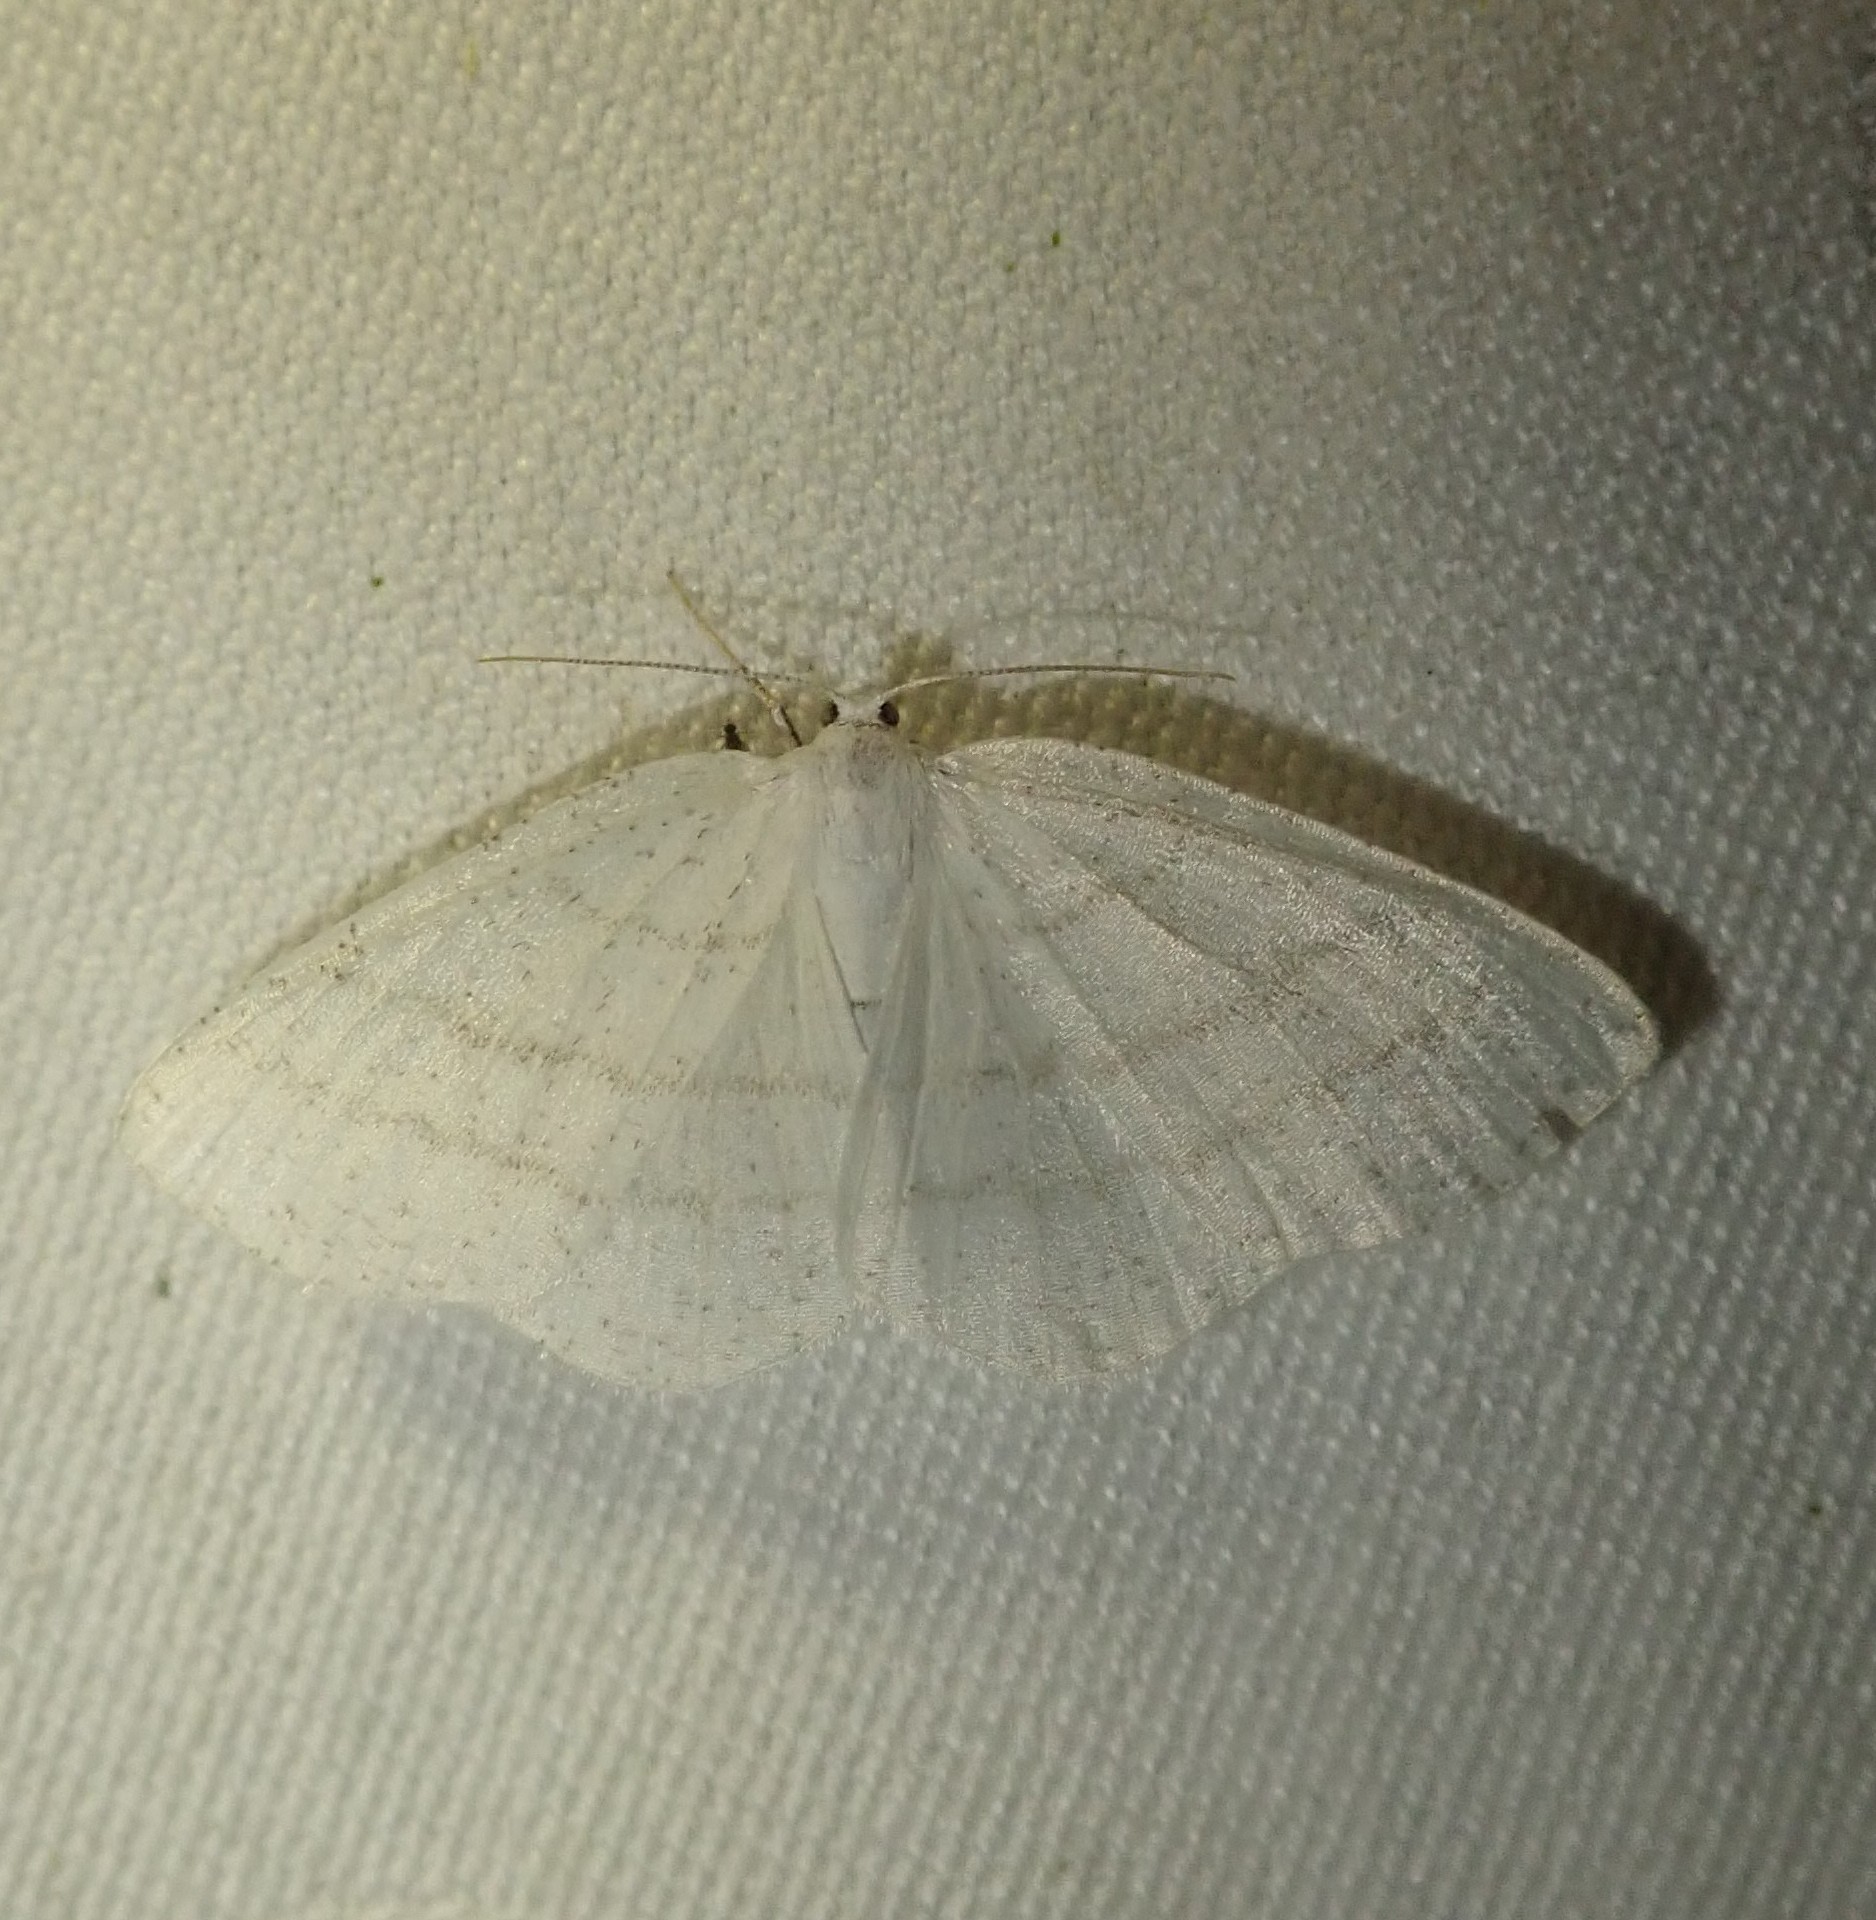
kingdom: Animalia
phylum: Arthropoda
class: Insecta
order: Lepidoptera
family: Geometridae
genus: Cabera
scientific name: Cabera pusaria
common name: Common white wave
